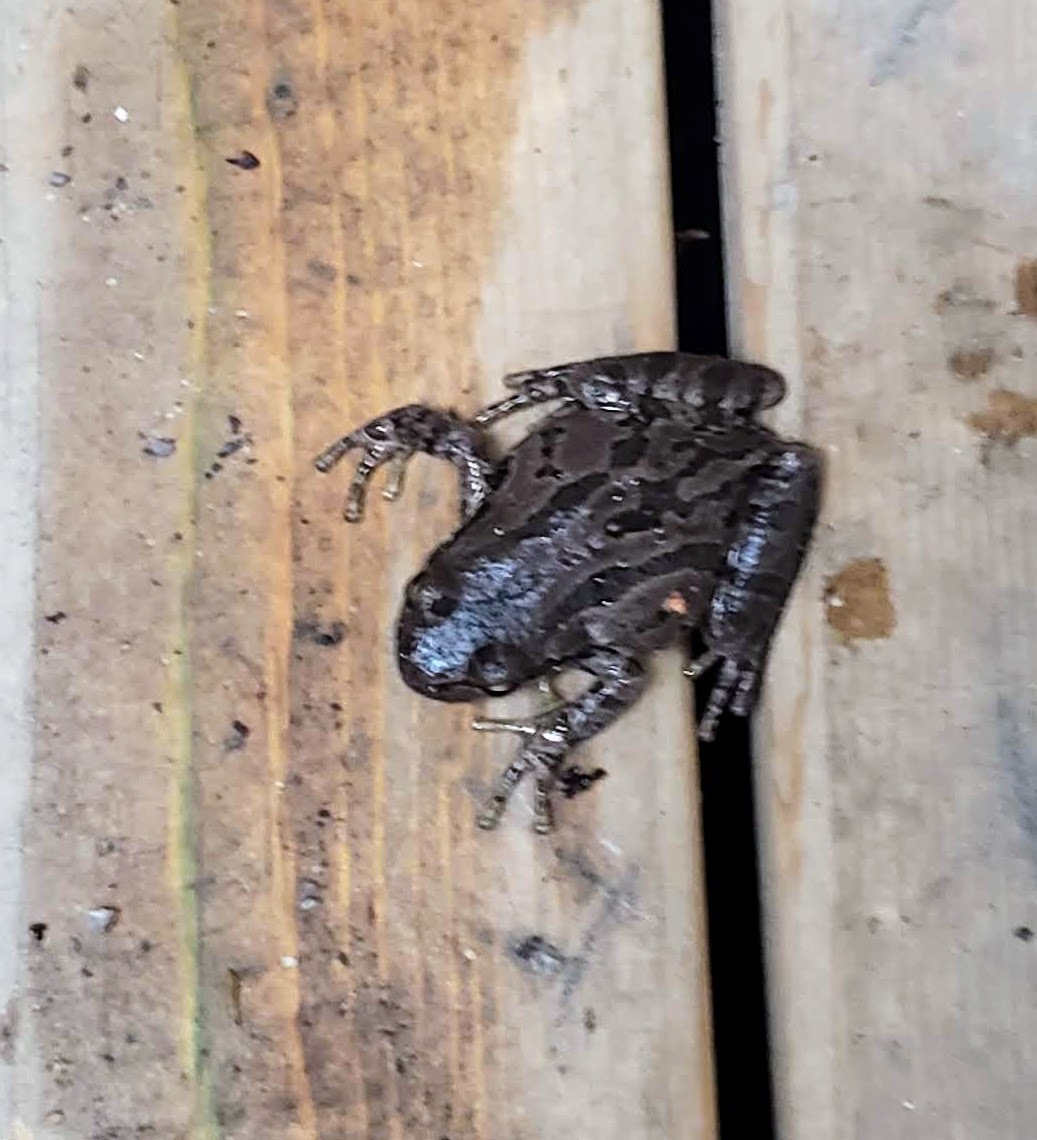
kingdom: Animalia
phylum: Chordata
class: Amphibia
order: Anura
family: Hylidae
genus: Pseudacris
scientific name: Pseudacris regilla
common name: Pacific chorus frog
